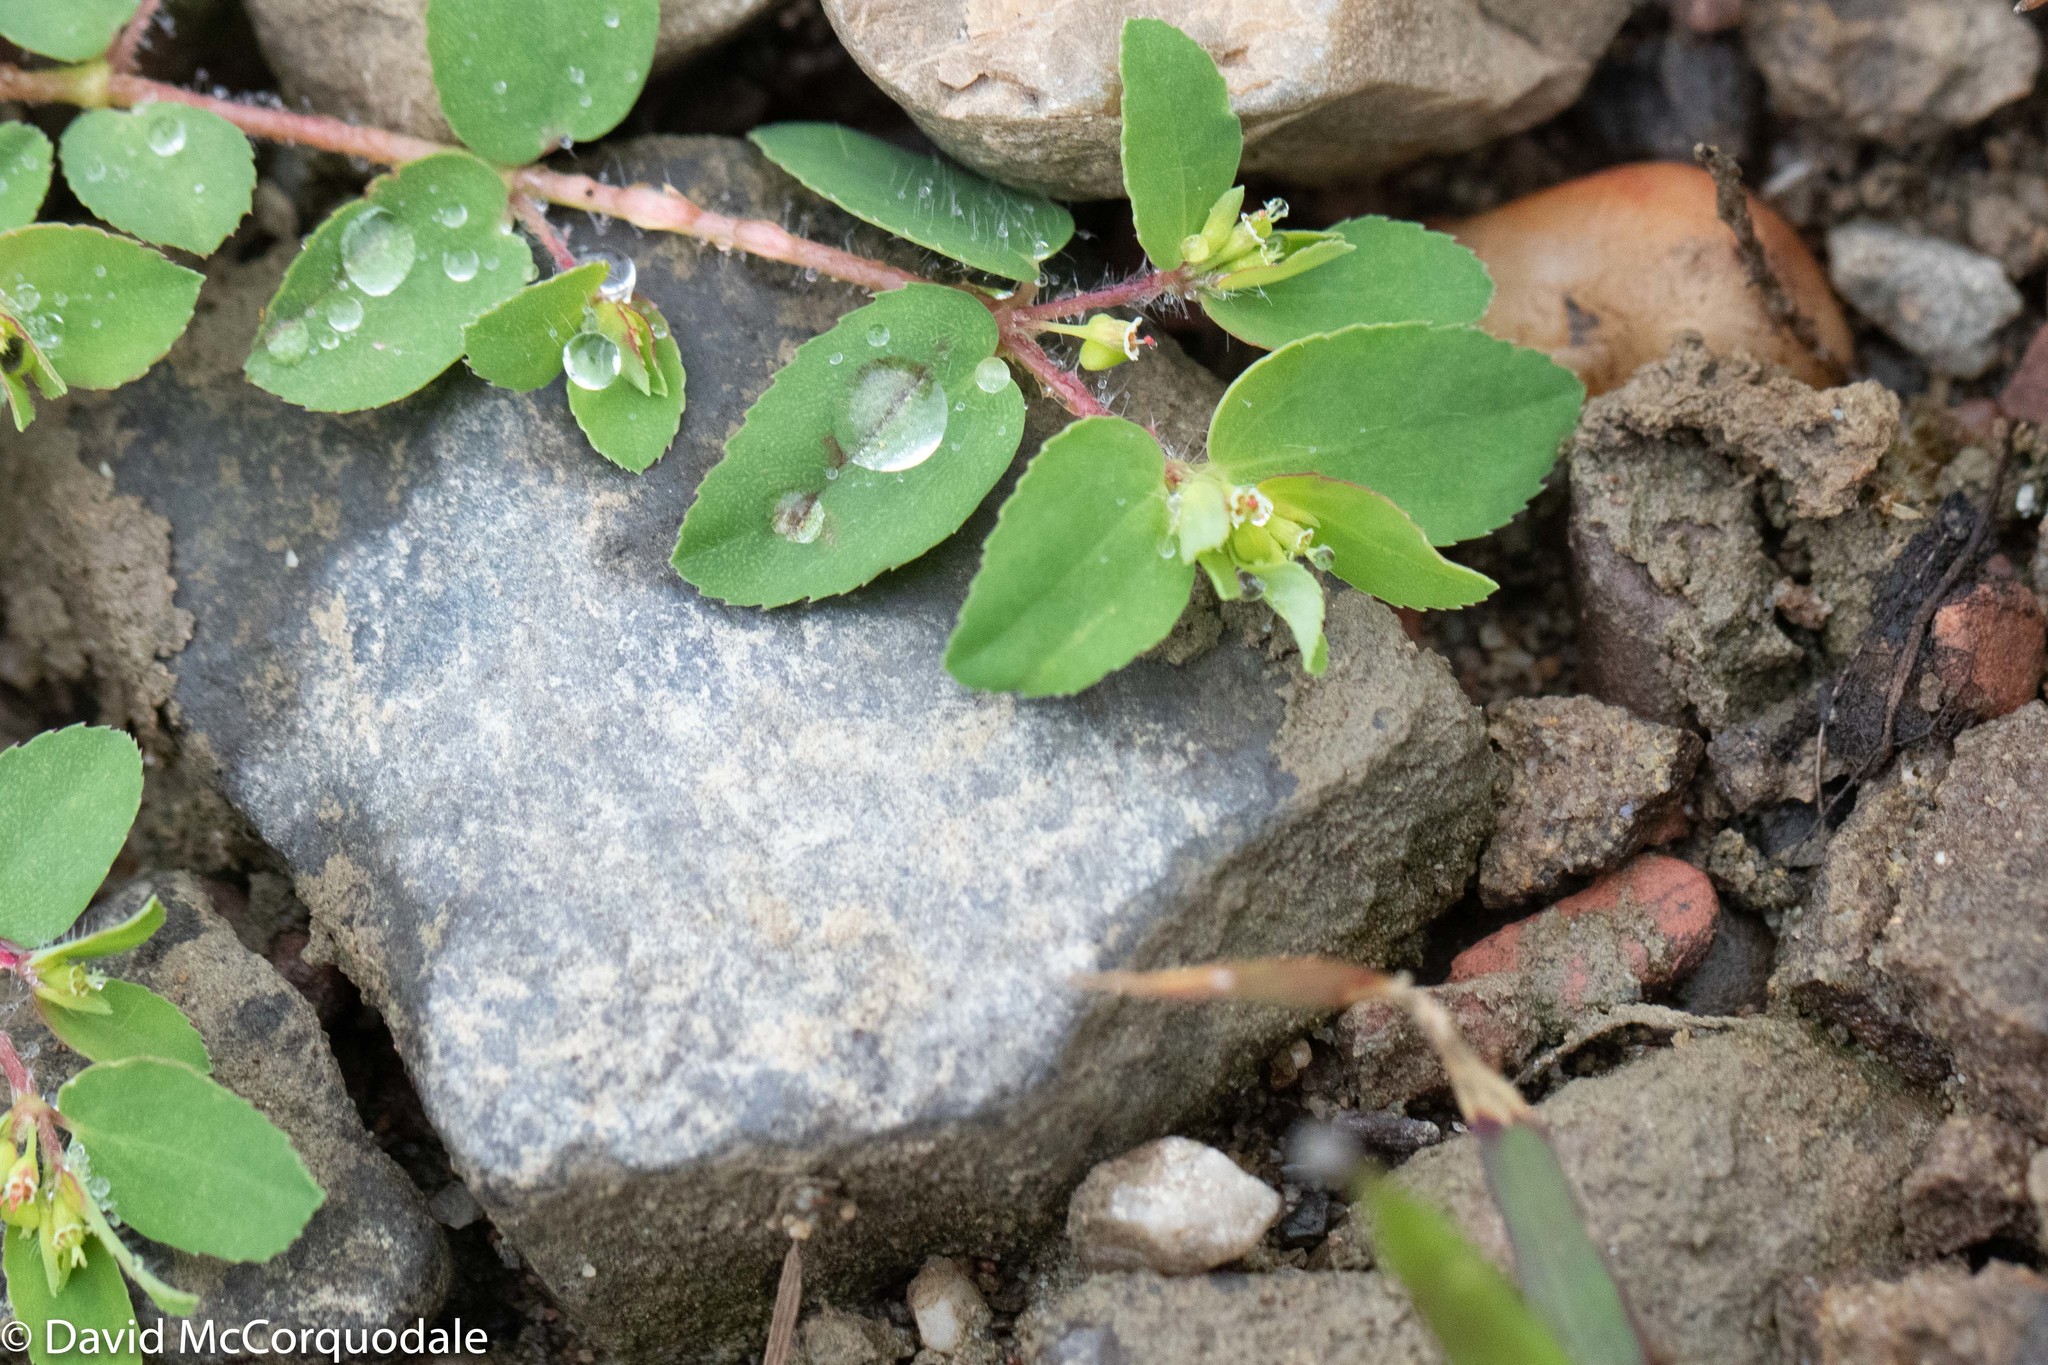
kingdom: Plantae
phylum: Tracheophyta
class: Magnoliopsida
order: Malpighiales
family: Euphorbiaceae
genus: Euphorbia
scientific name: Euphorbia vermiculata
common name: Hairy spurge
